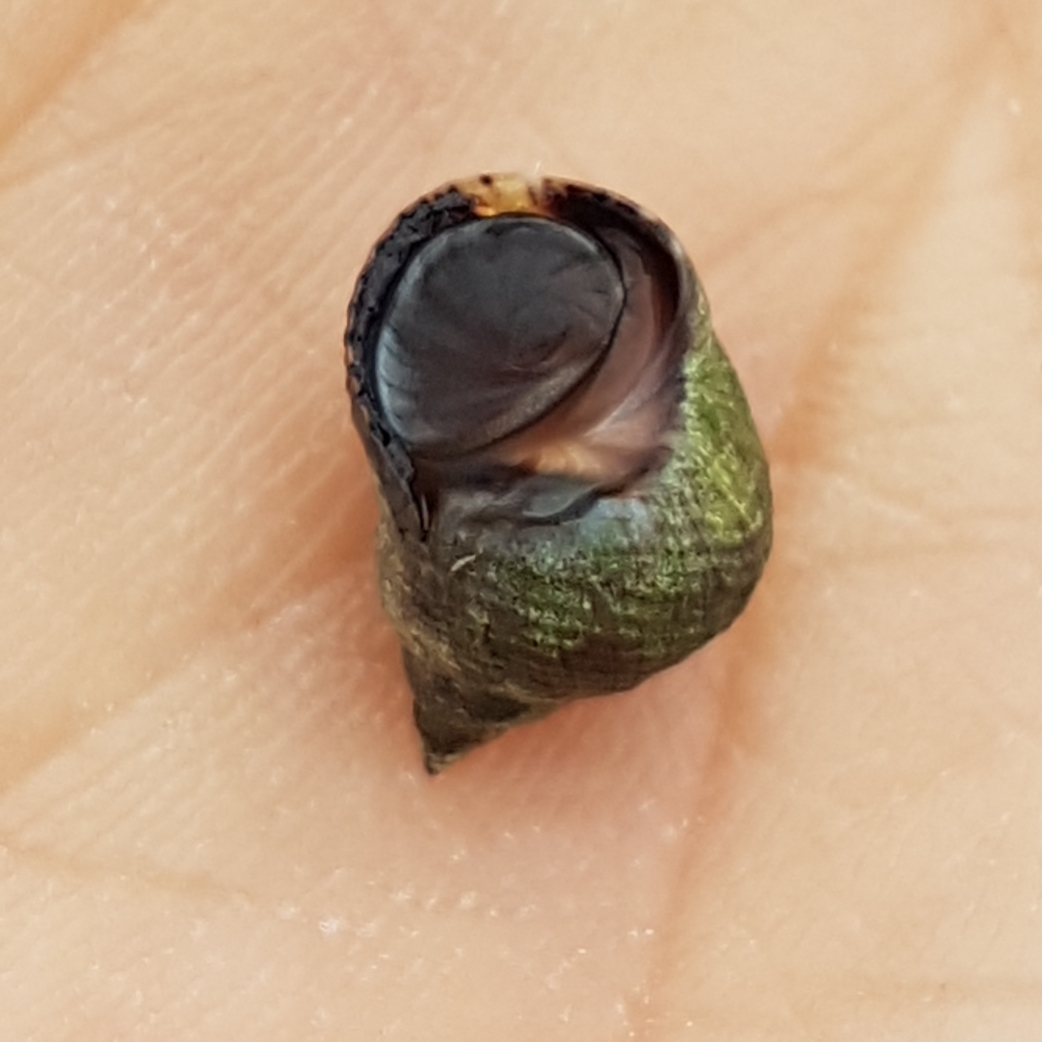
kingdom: Animalia
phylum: Mollusca
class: Gastropoda
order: Littorinimorpha
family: Littorinidae
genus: Tectarius
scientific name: Tectarius striatus
